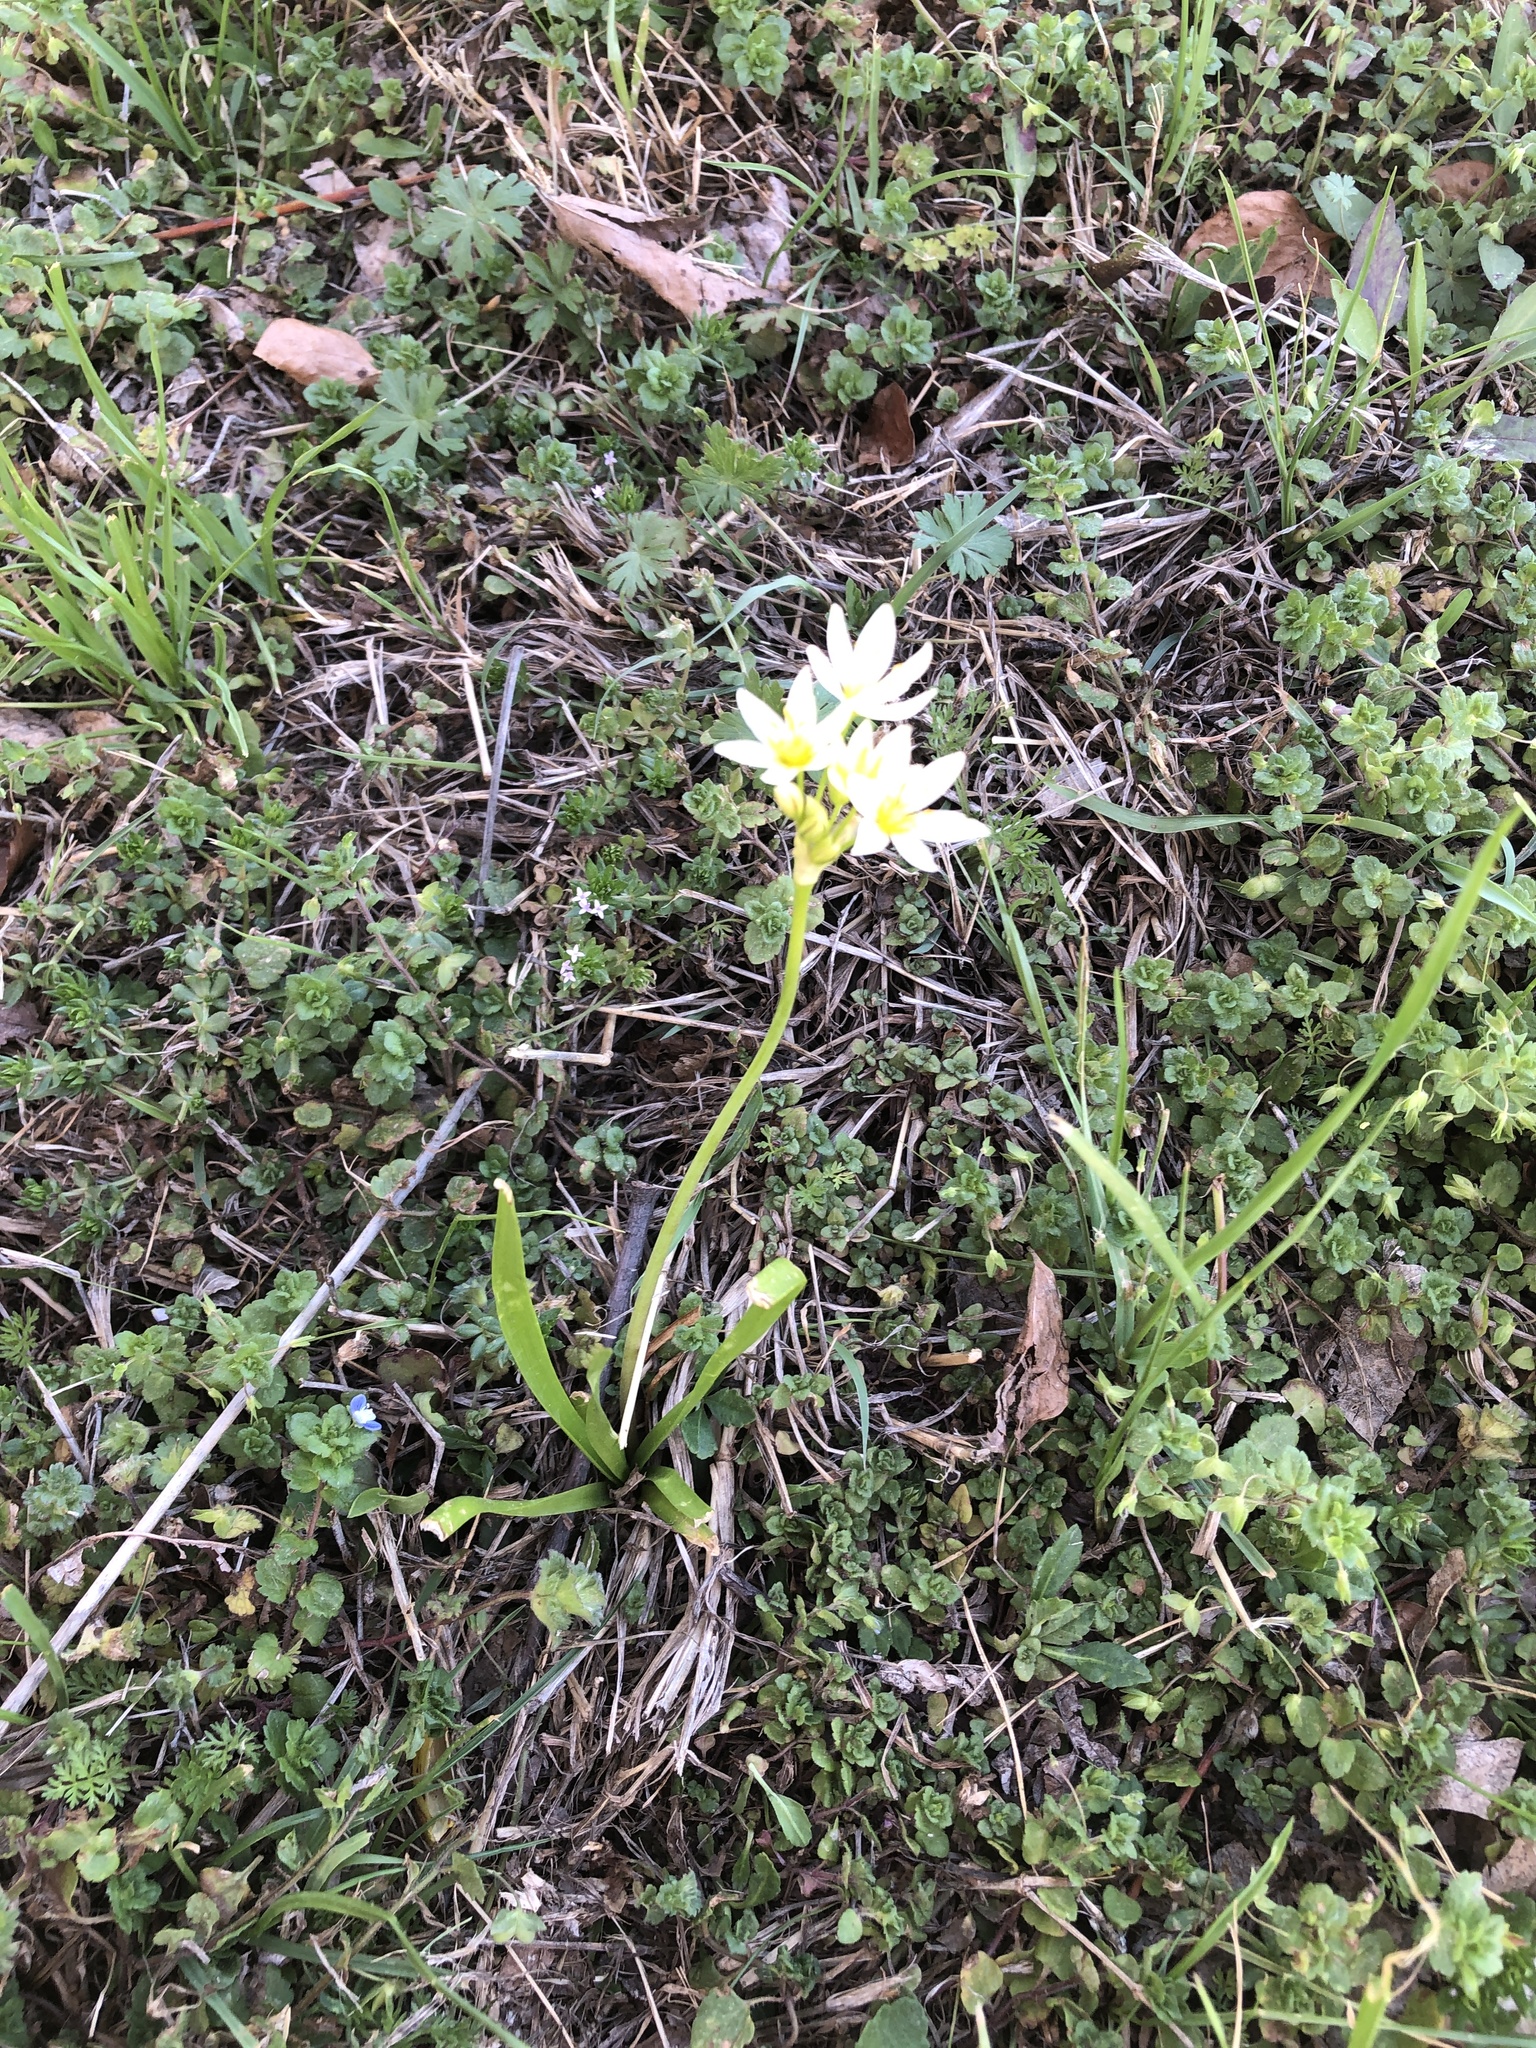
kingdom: Plantae
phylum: Tracheophyta
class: Liliopsida
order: Asparagales
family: Amaryllidaceae
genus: Nothoscordum
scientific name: Nothoscordum bivalve
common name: Crow-poison
